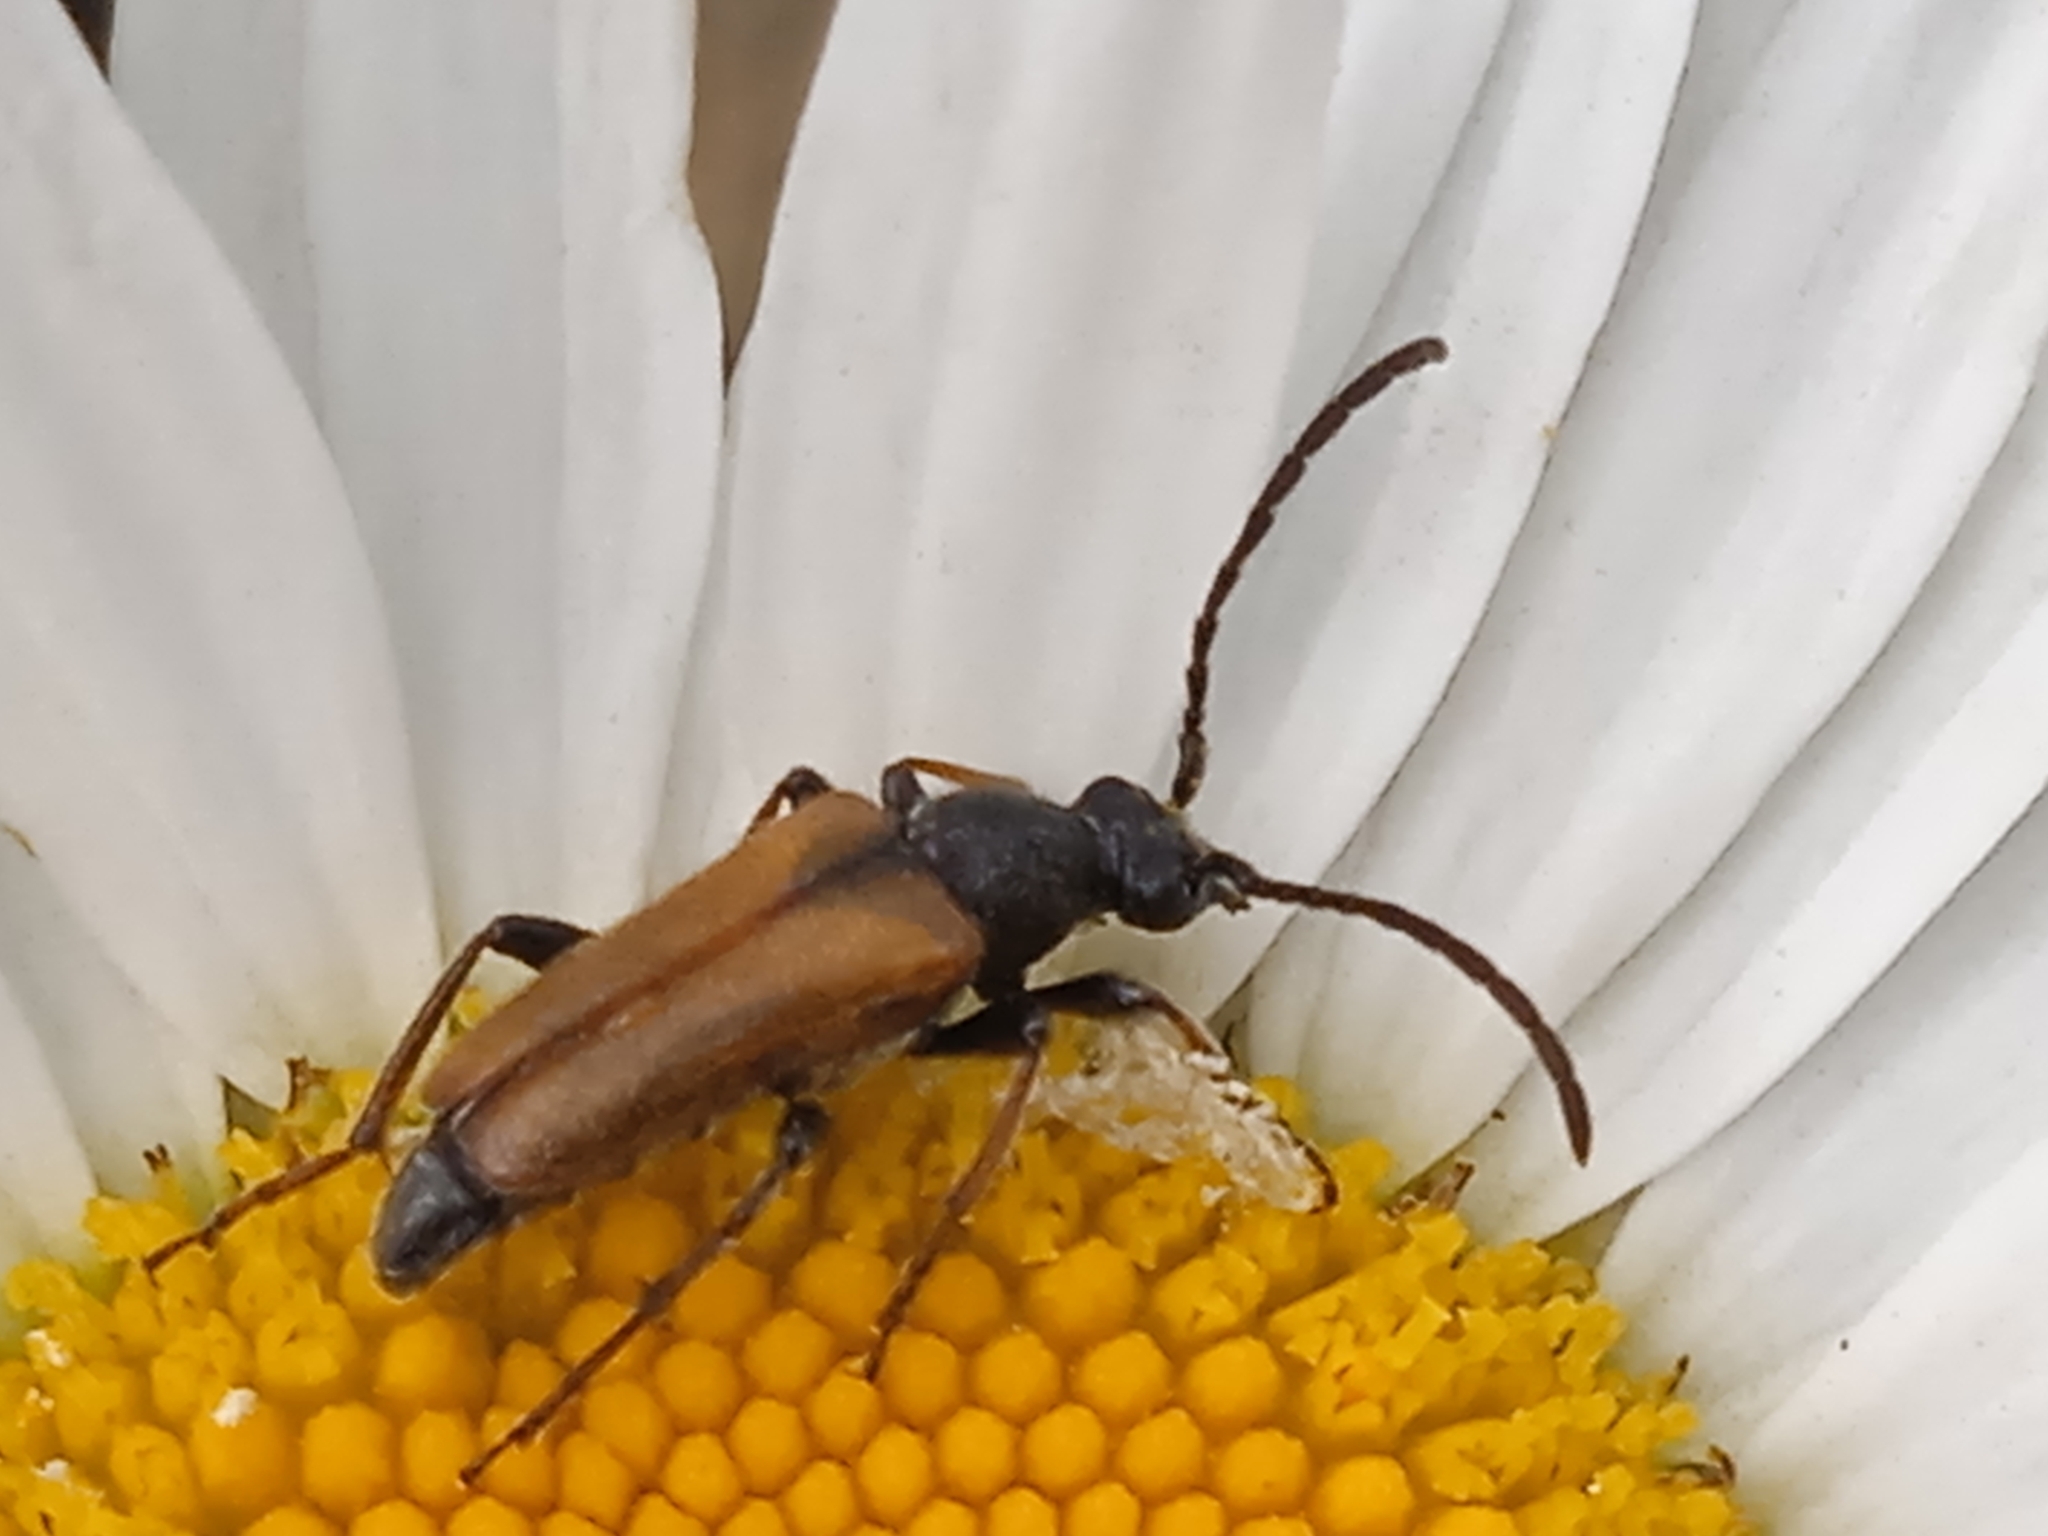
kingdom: Animalia
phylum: Arthropoda
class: Insecta
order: Coleoptera
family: Cerambycidae
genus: Pseudovadonia
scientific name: Pseudovadonia livida
